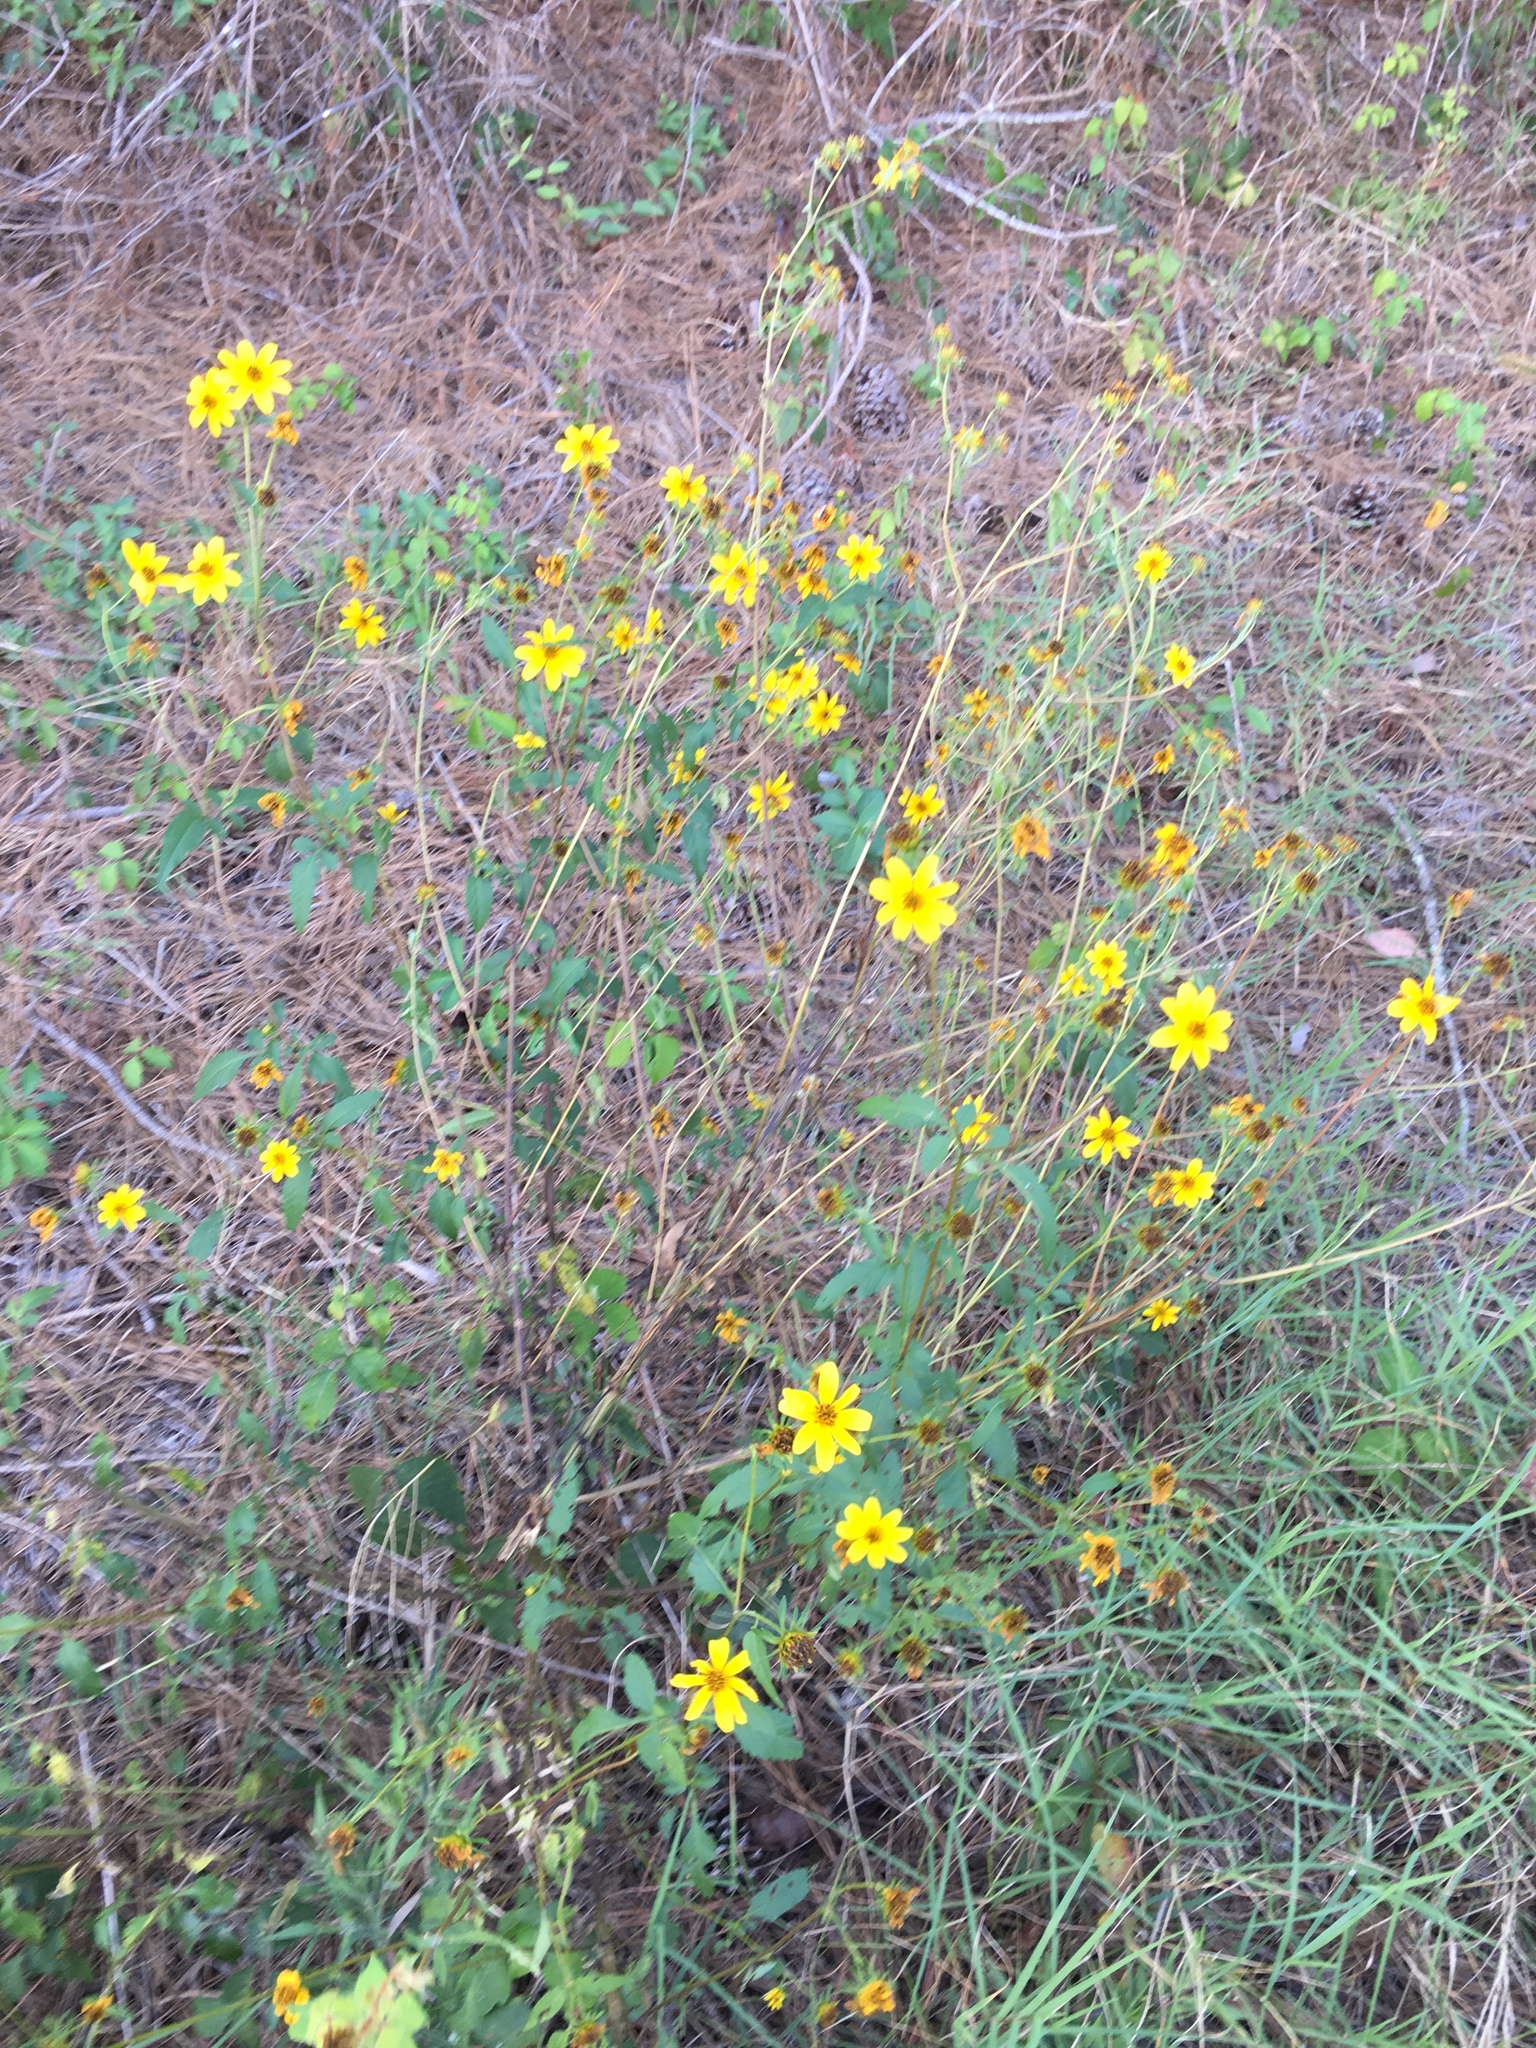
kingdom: Plantae
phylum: Tracheophyta
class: Magnoliopsida
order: Asterales
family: Asteraceae
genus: Bidens
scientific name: Bidens aristosa
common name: Western tickseed
